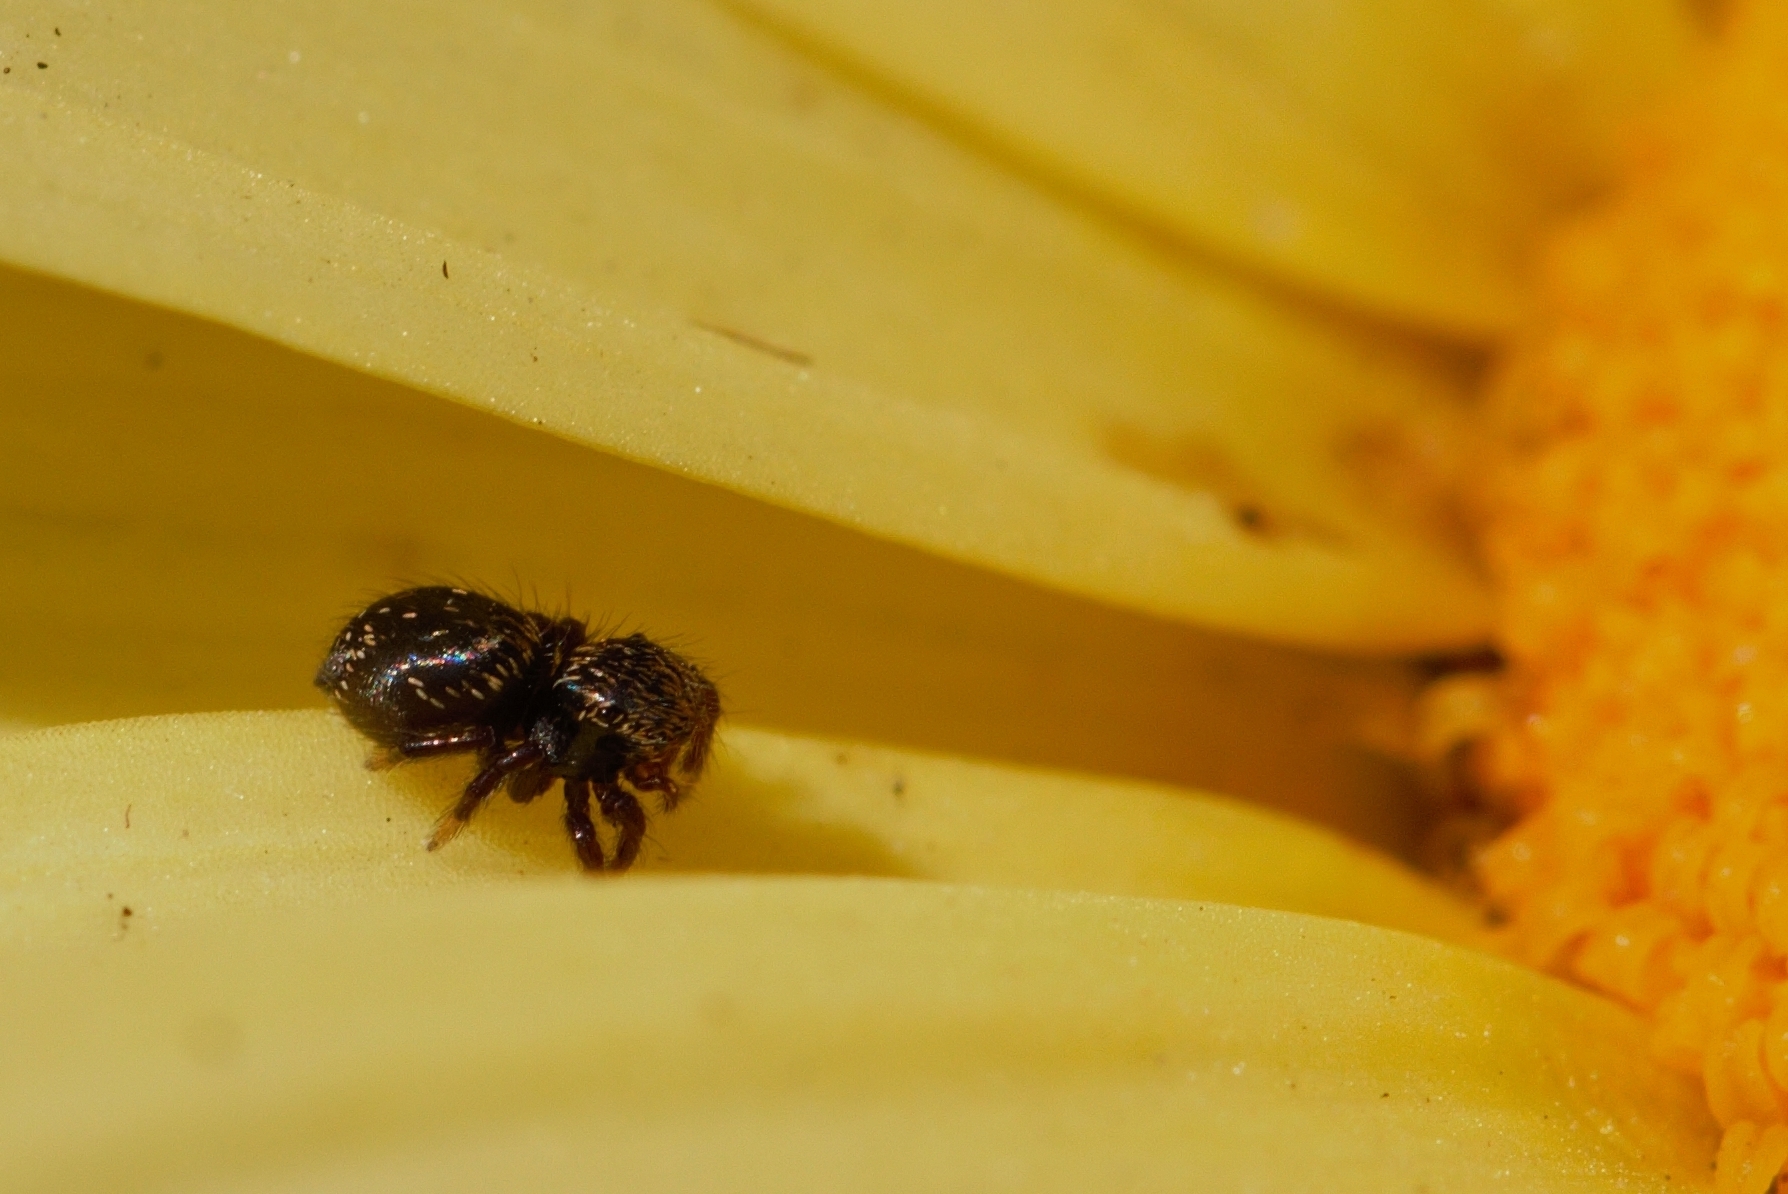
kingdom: Animalia
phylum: Arthropoda
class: Arachnida
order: Araneae
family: Salticidae
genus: Baryphas
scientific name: Baryphas ahenus
